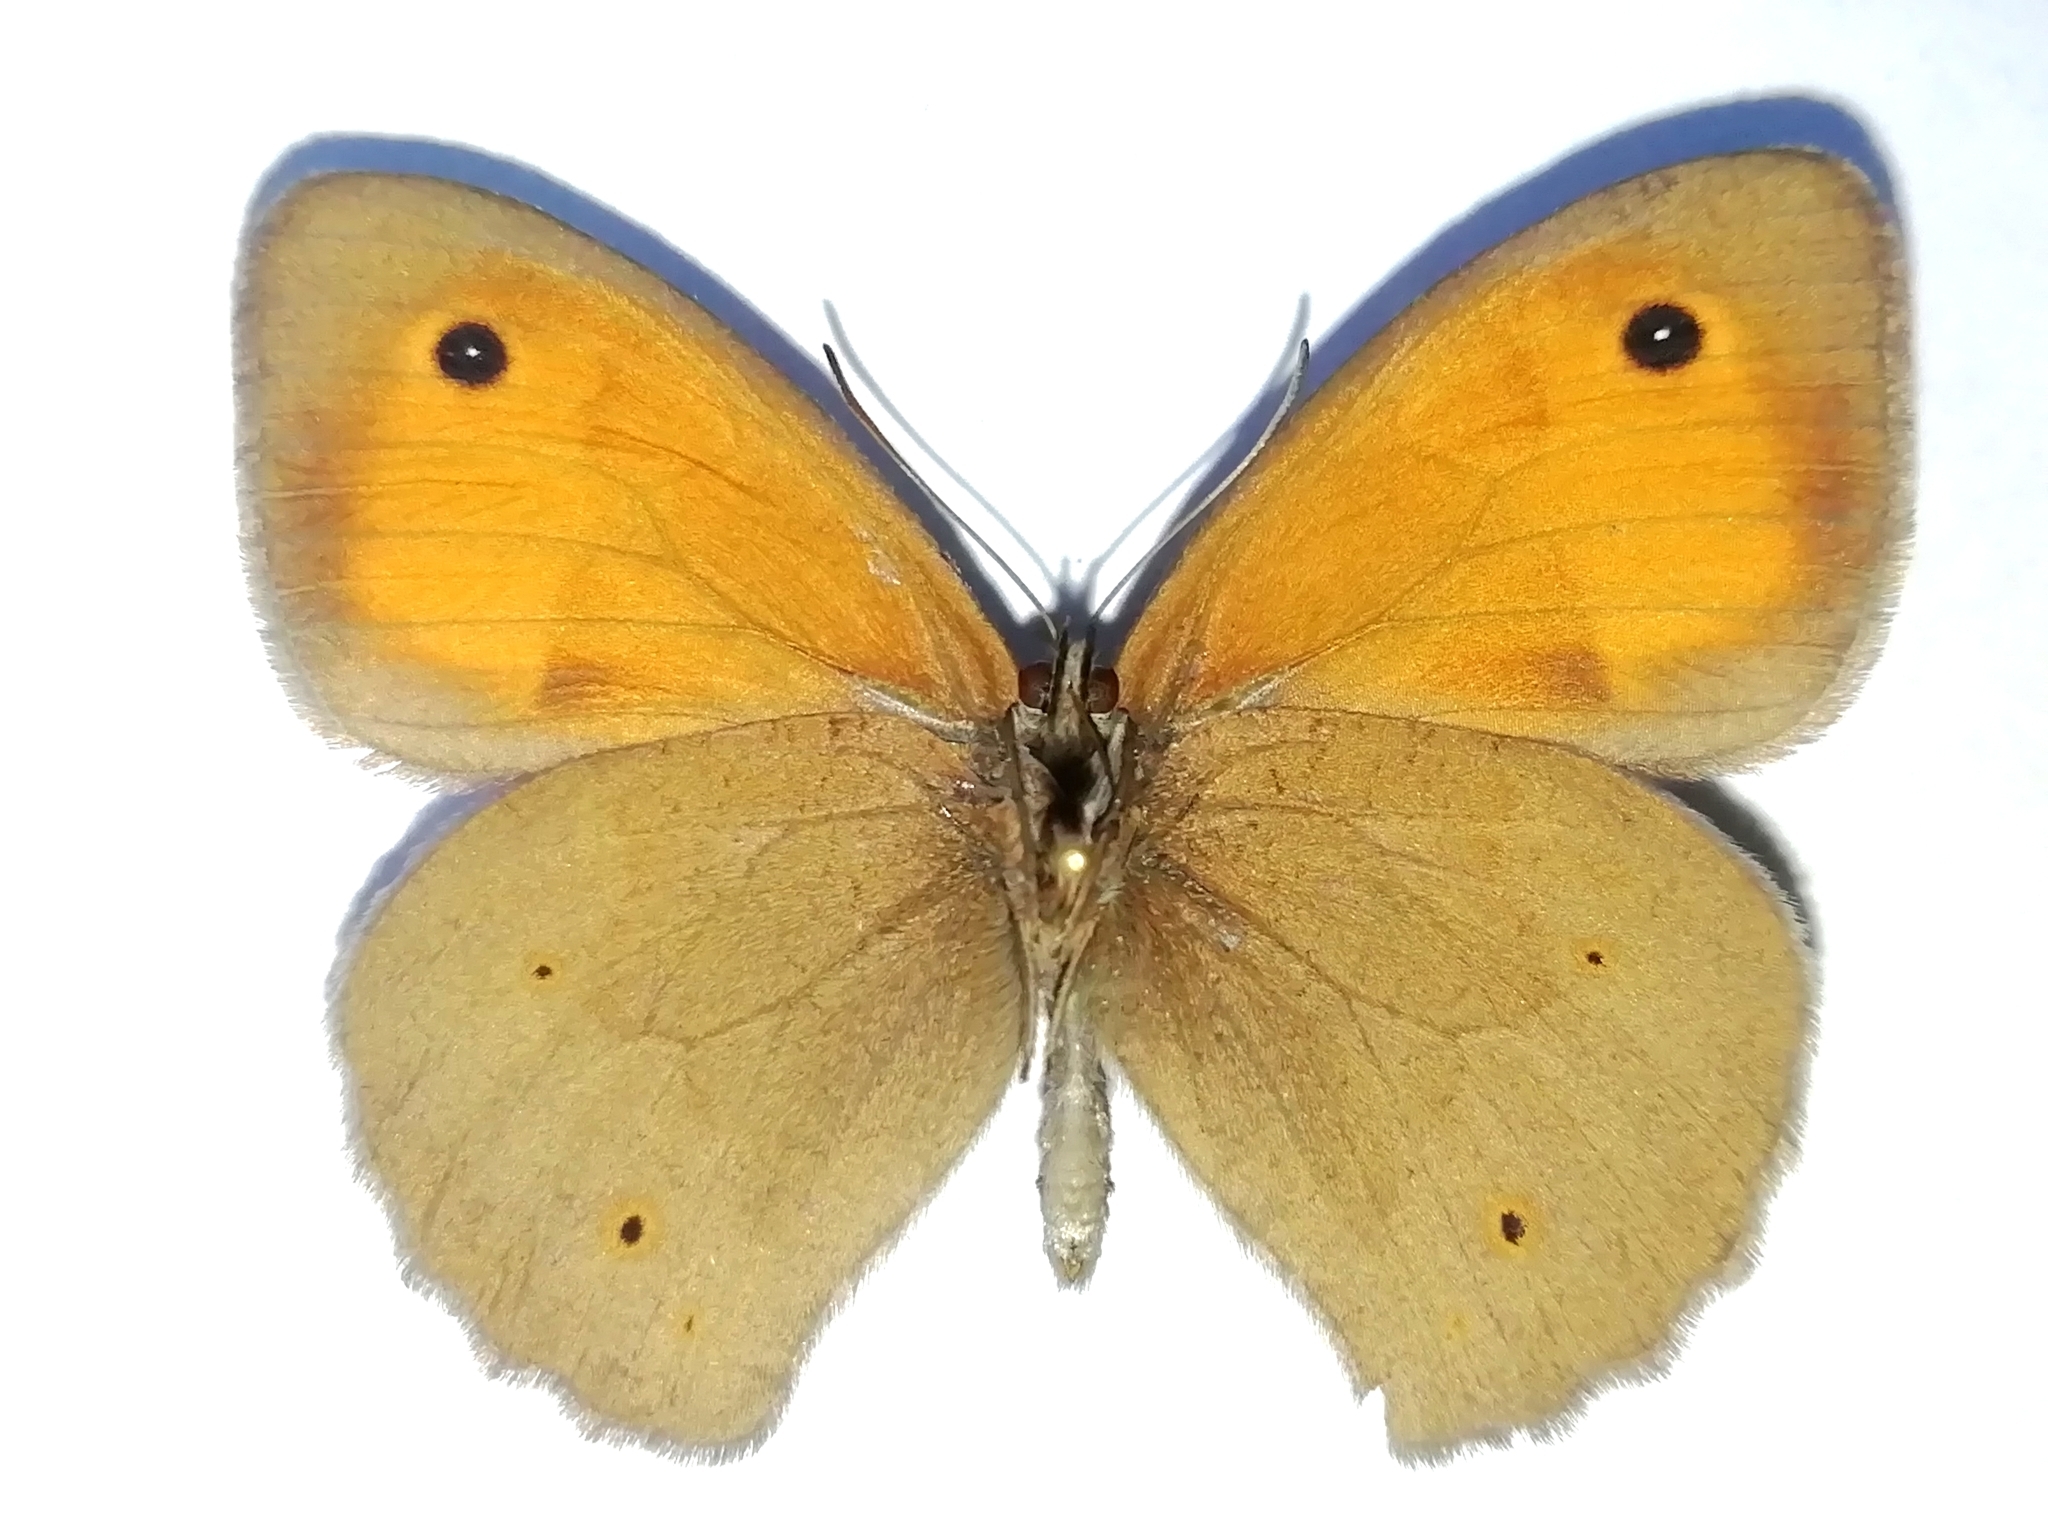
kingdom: Animalia
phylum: Arthropoda
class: Insecta
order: Lepidoptera
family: Nymphalidae
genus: Maniola
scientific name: Maniola jurtina
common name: Meadow brown
